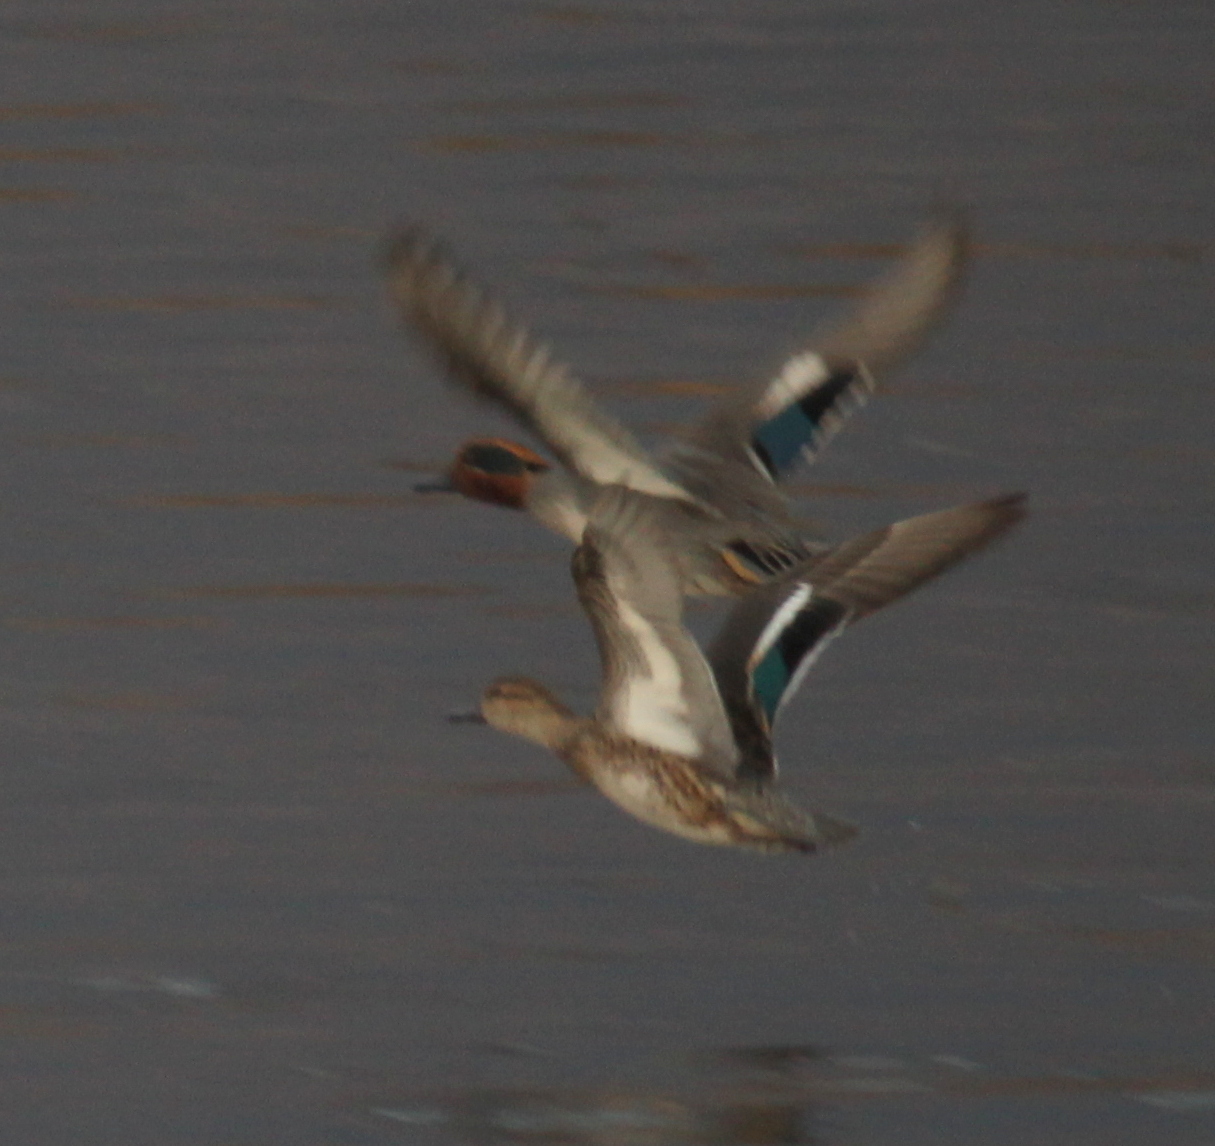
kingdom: Animalia
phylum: Chordata
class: Aves
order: Anseriformes
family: Anatidae
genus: Anas
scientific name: Anas crecca
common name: Eurasian teal
